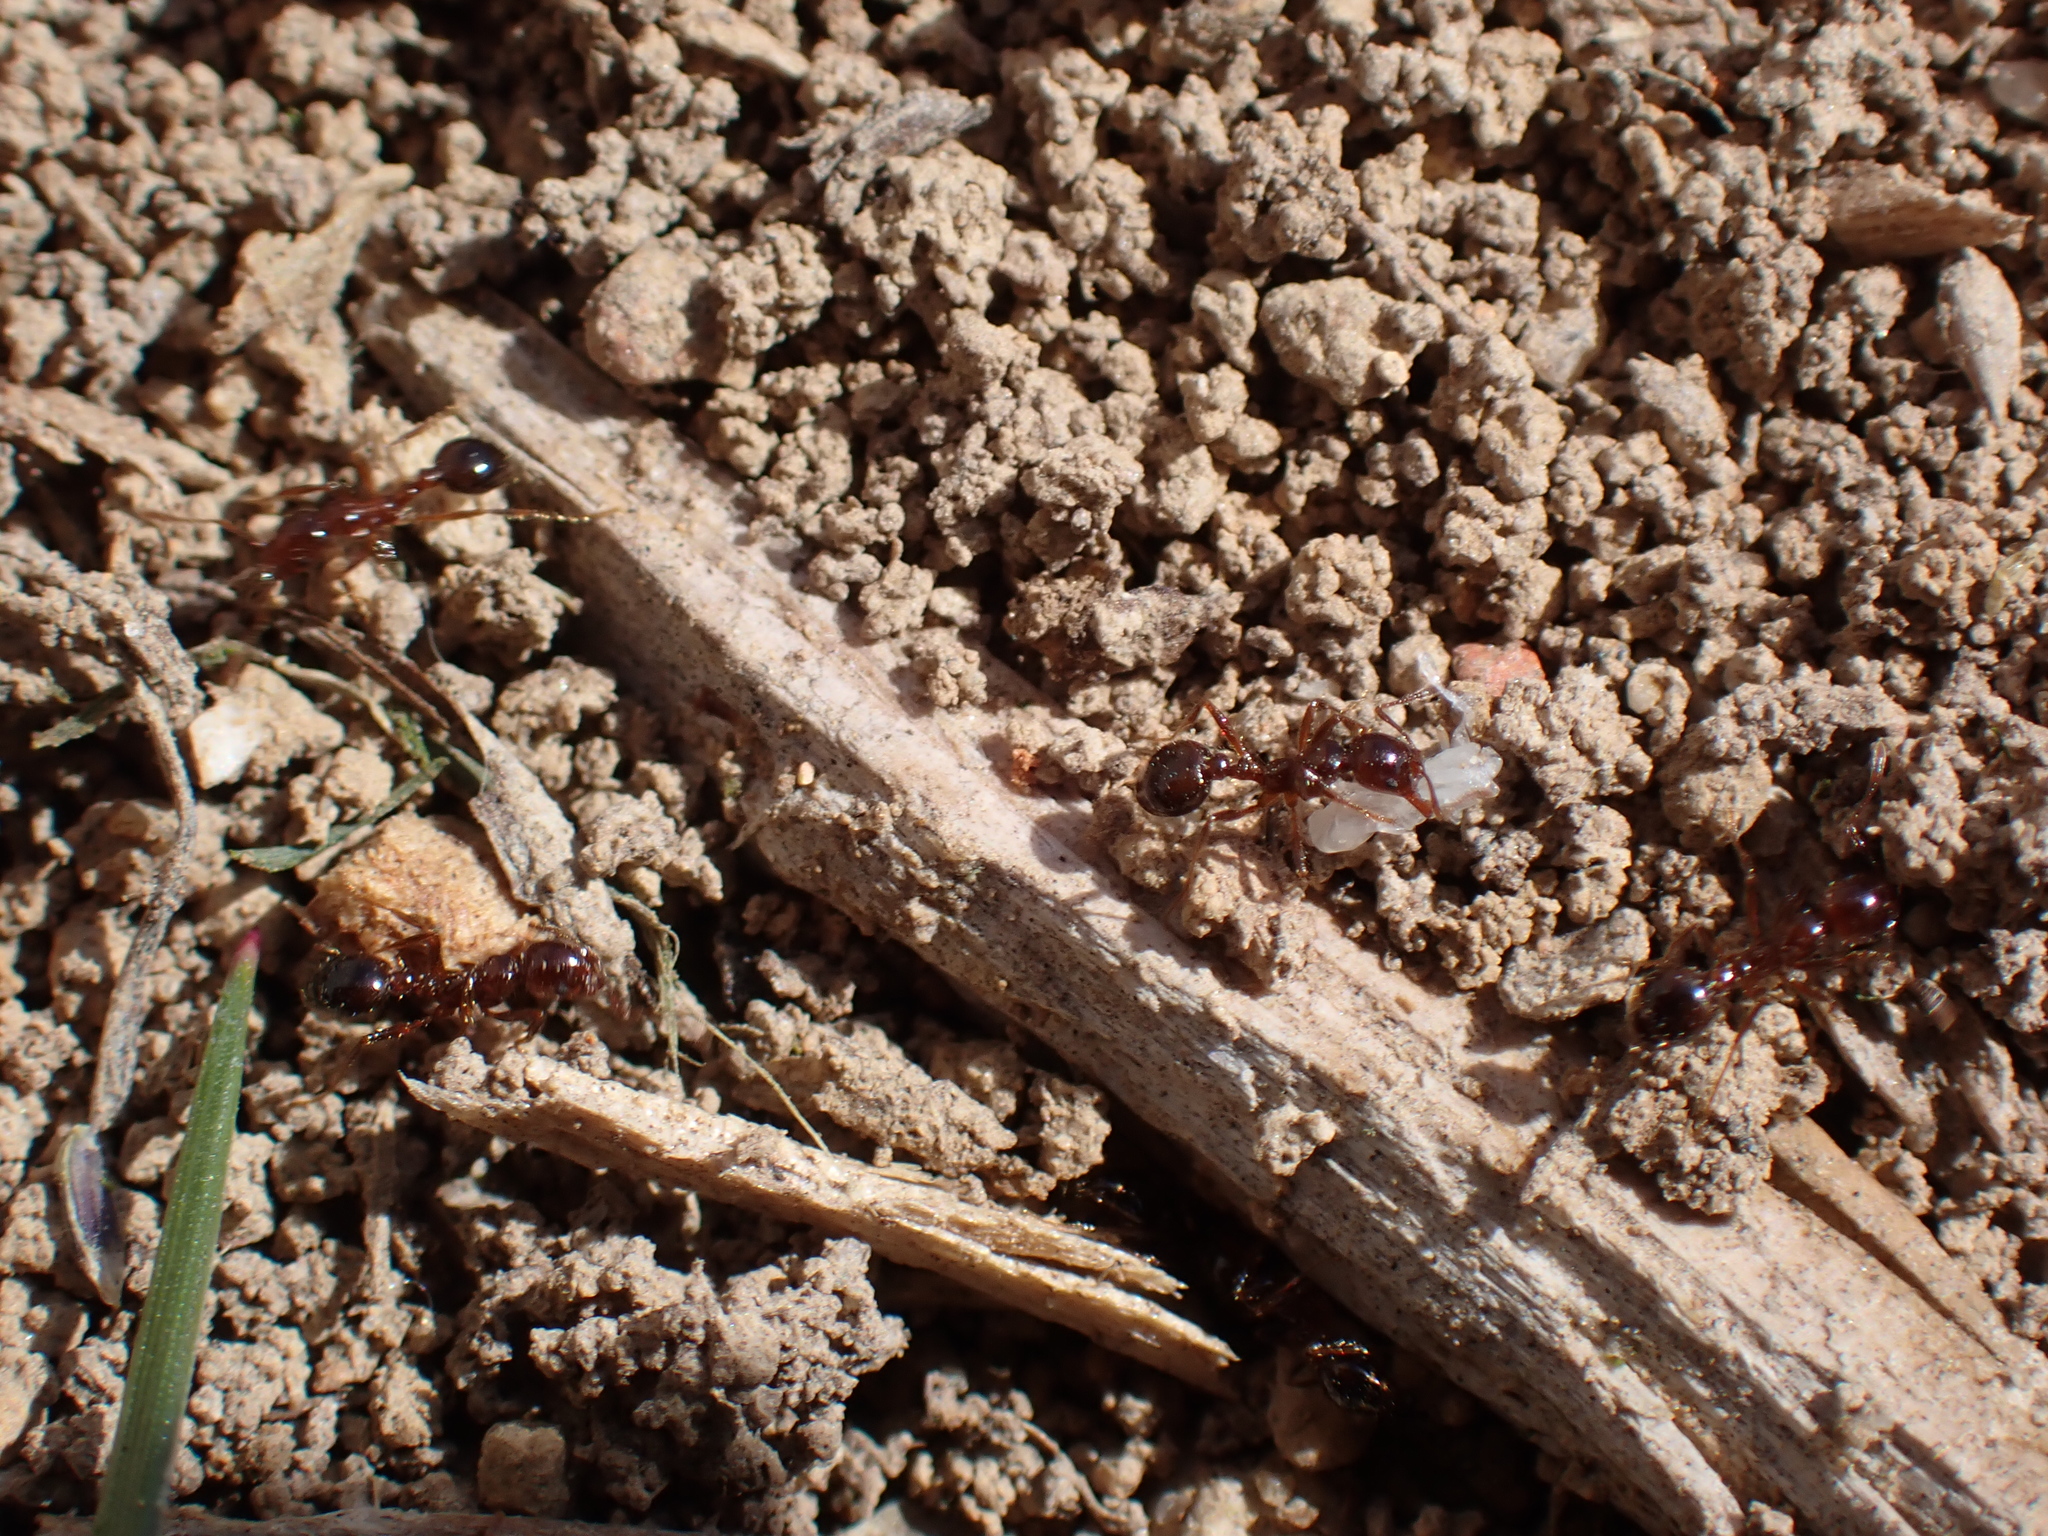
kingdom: Animalia
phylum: Arthropoda
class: Insecta
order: Hymenoptera
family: Formicidae
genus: Solenopsis
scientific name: Solenopsis
